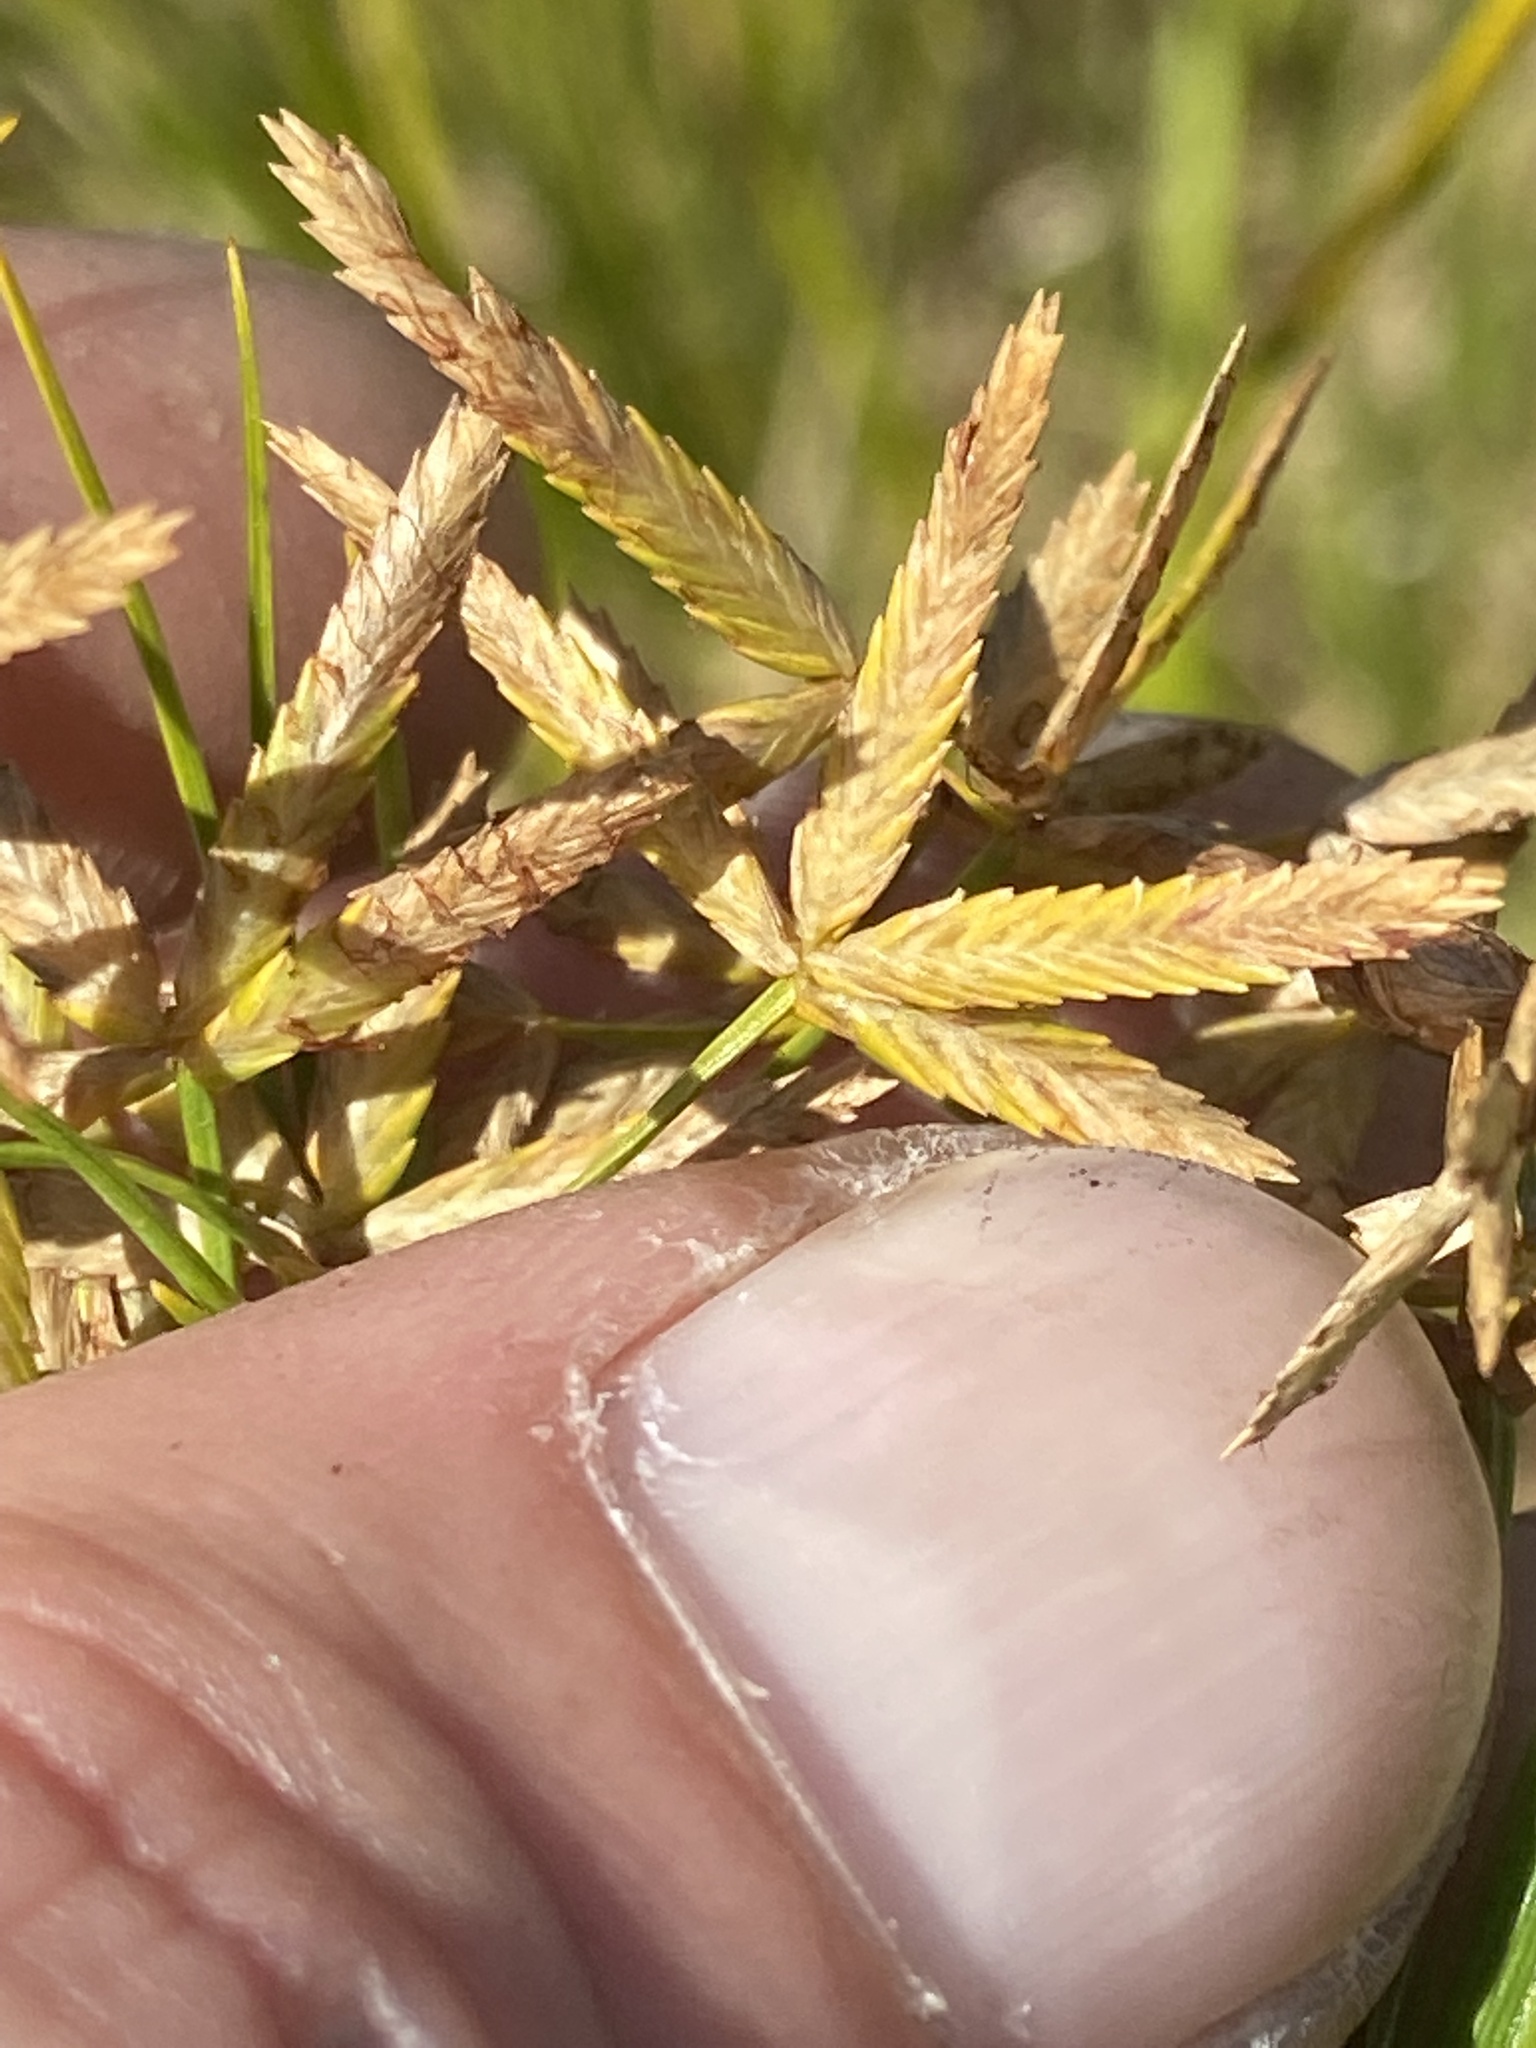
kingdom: Plantae
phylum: Tracheophyta
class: Liliopsida
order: Poales
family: Cyperaceae
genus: Cyperus
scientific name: Cyperus lecontei
